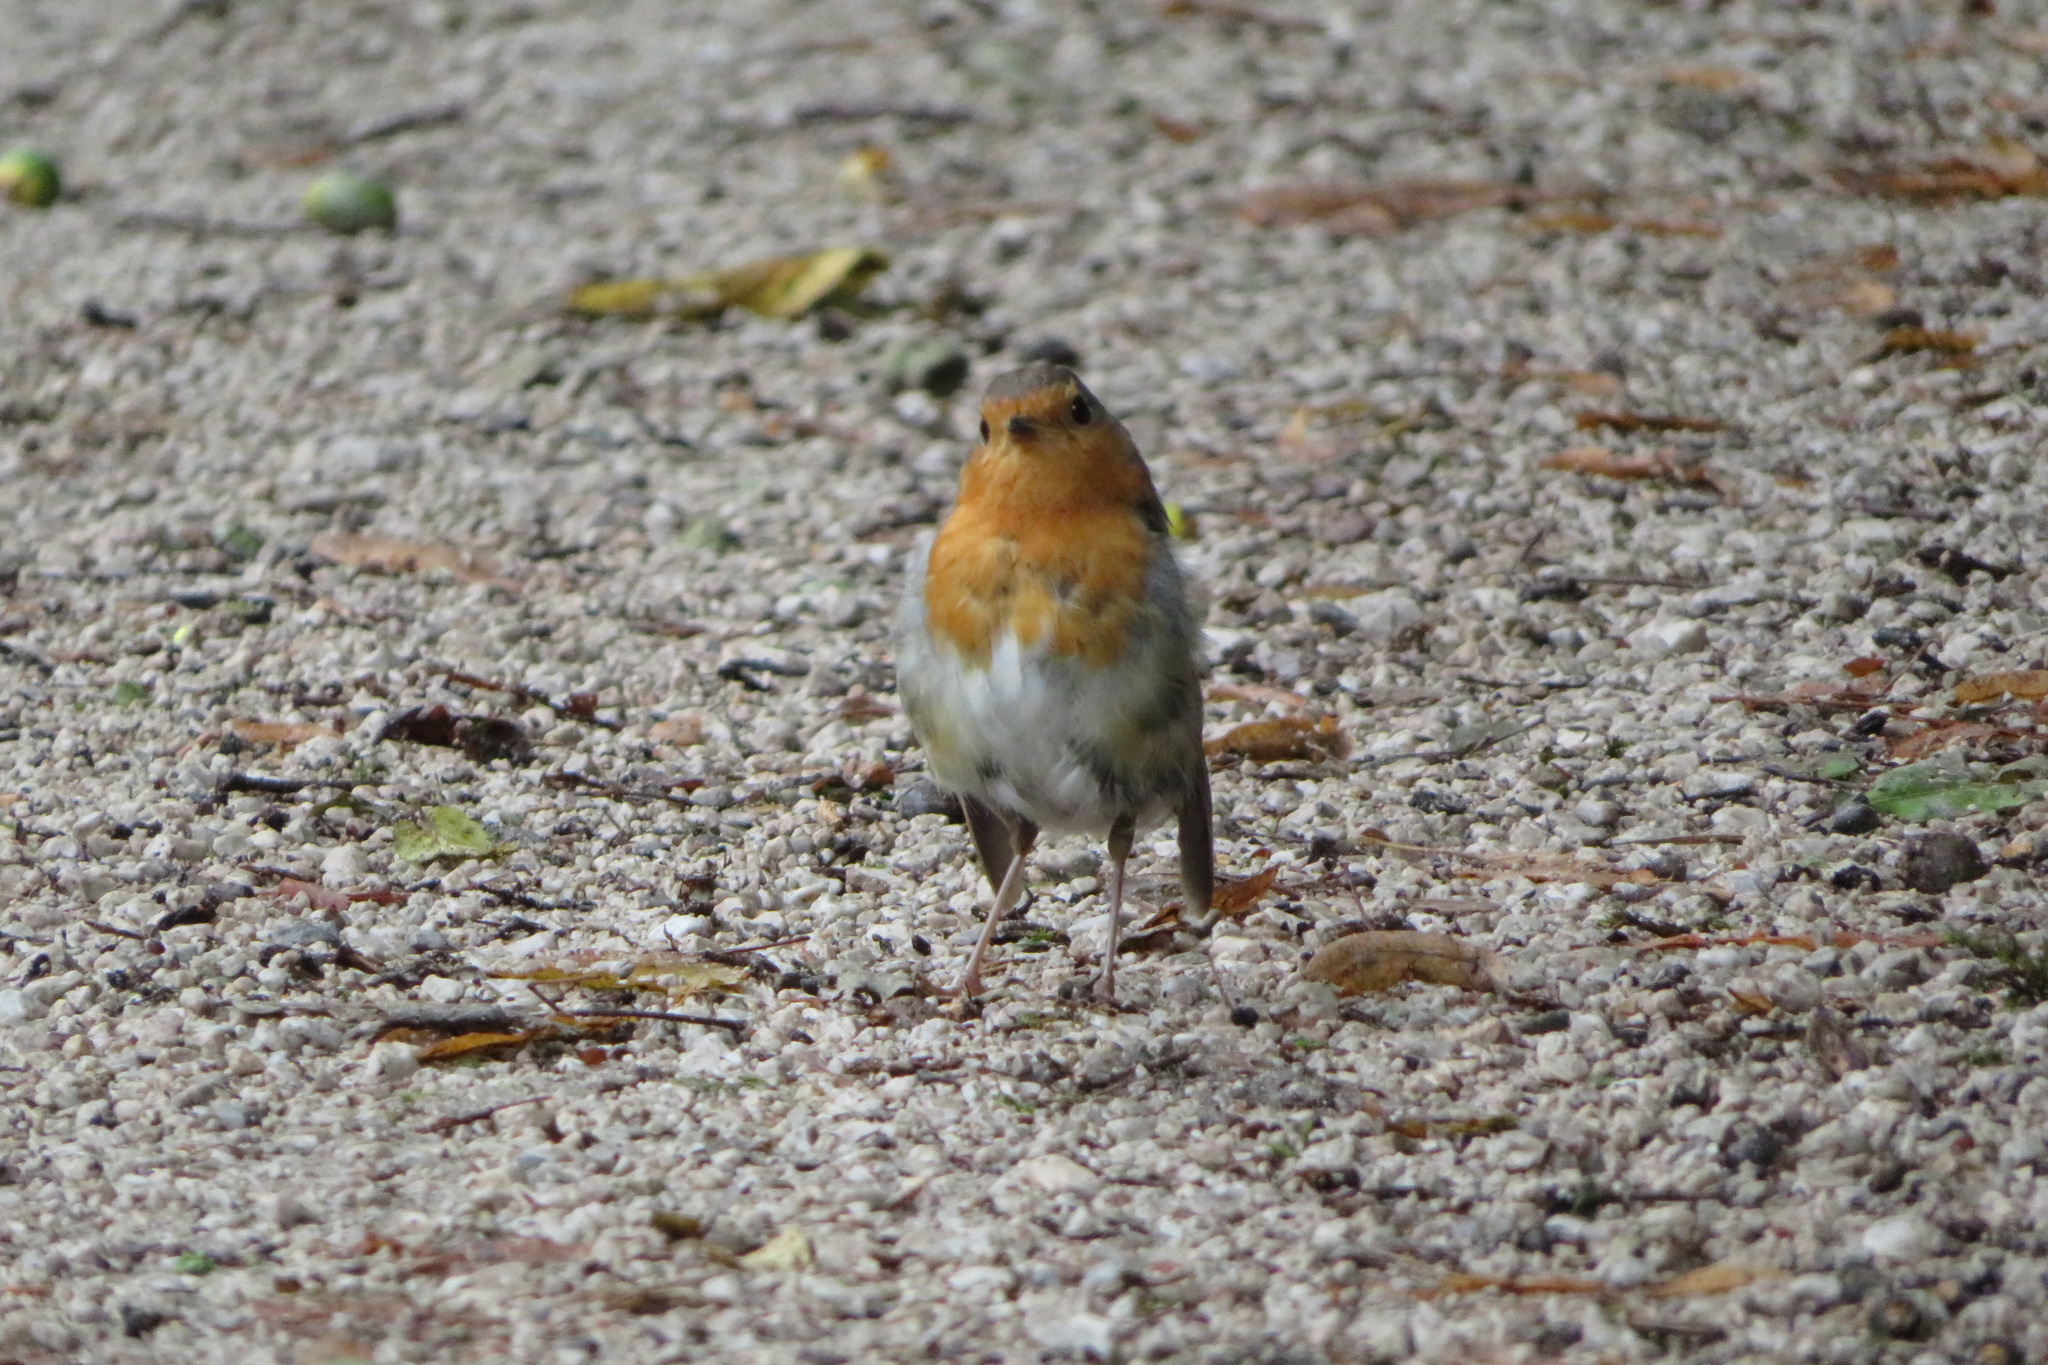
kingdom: Animalia
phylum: Chordata
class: Aves
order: Passeriformes
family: Muscicapidae
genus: Erithacus
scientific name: Erithacus rubecula
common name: European robin
